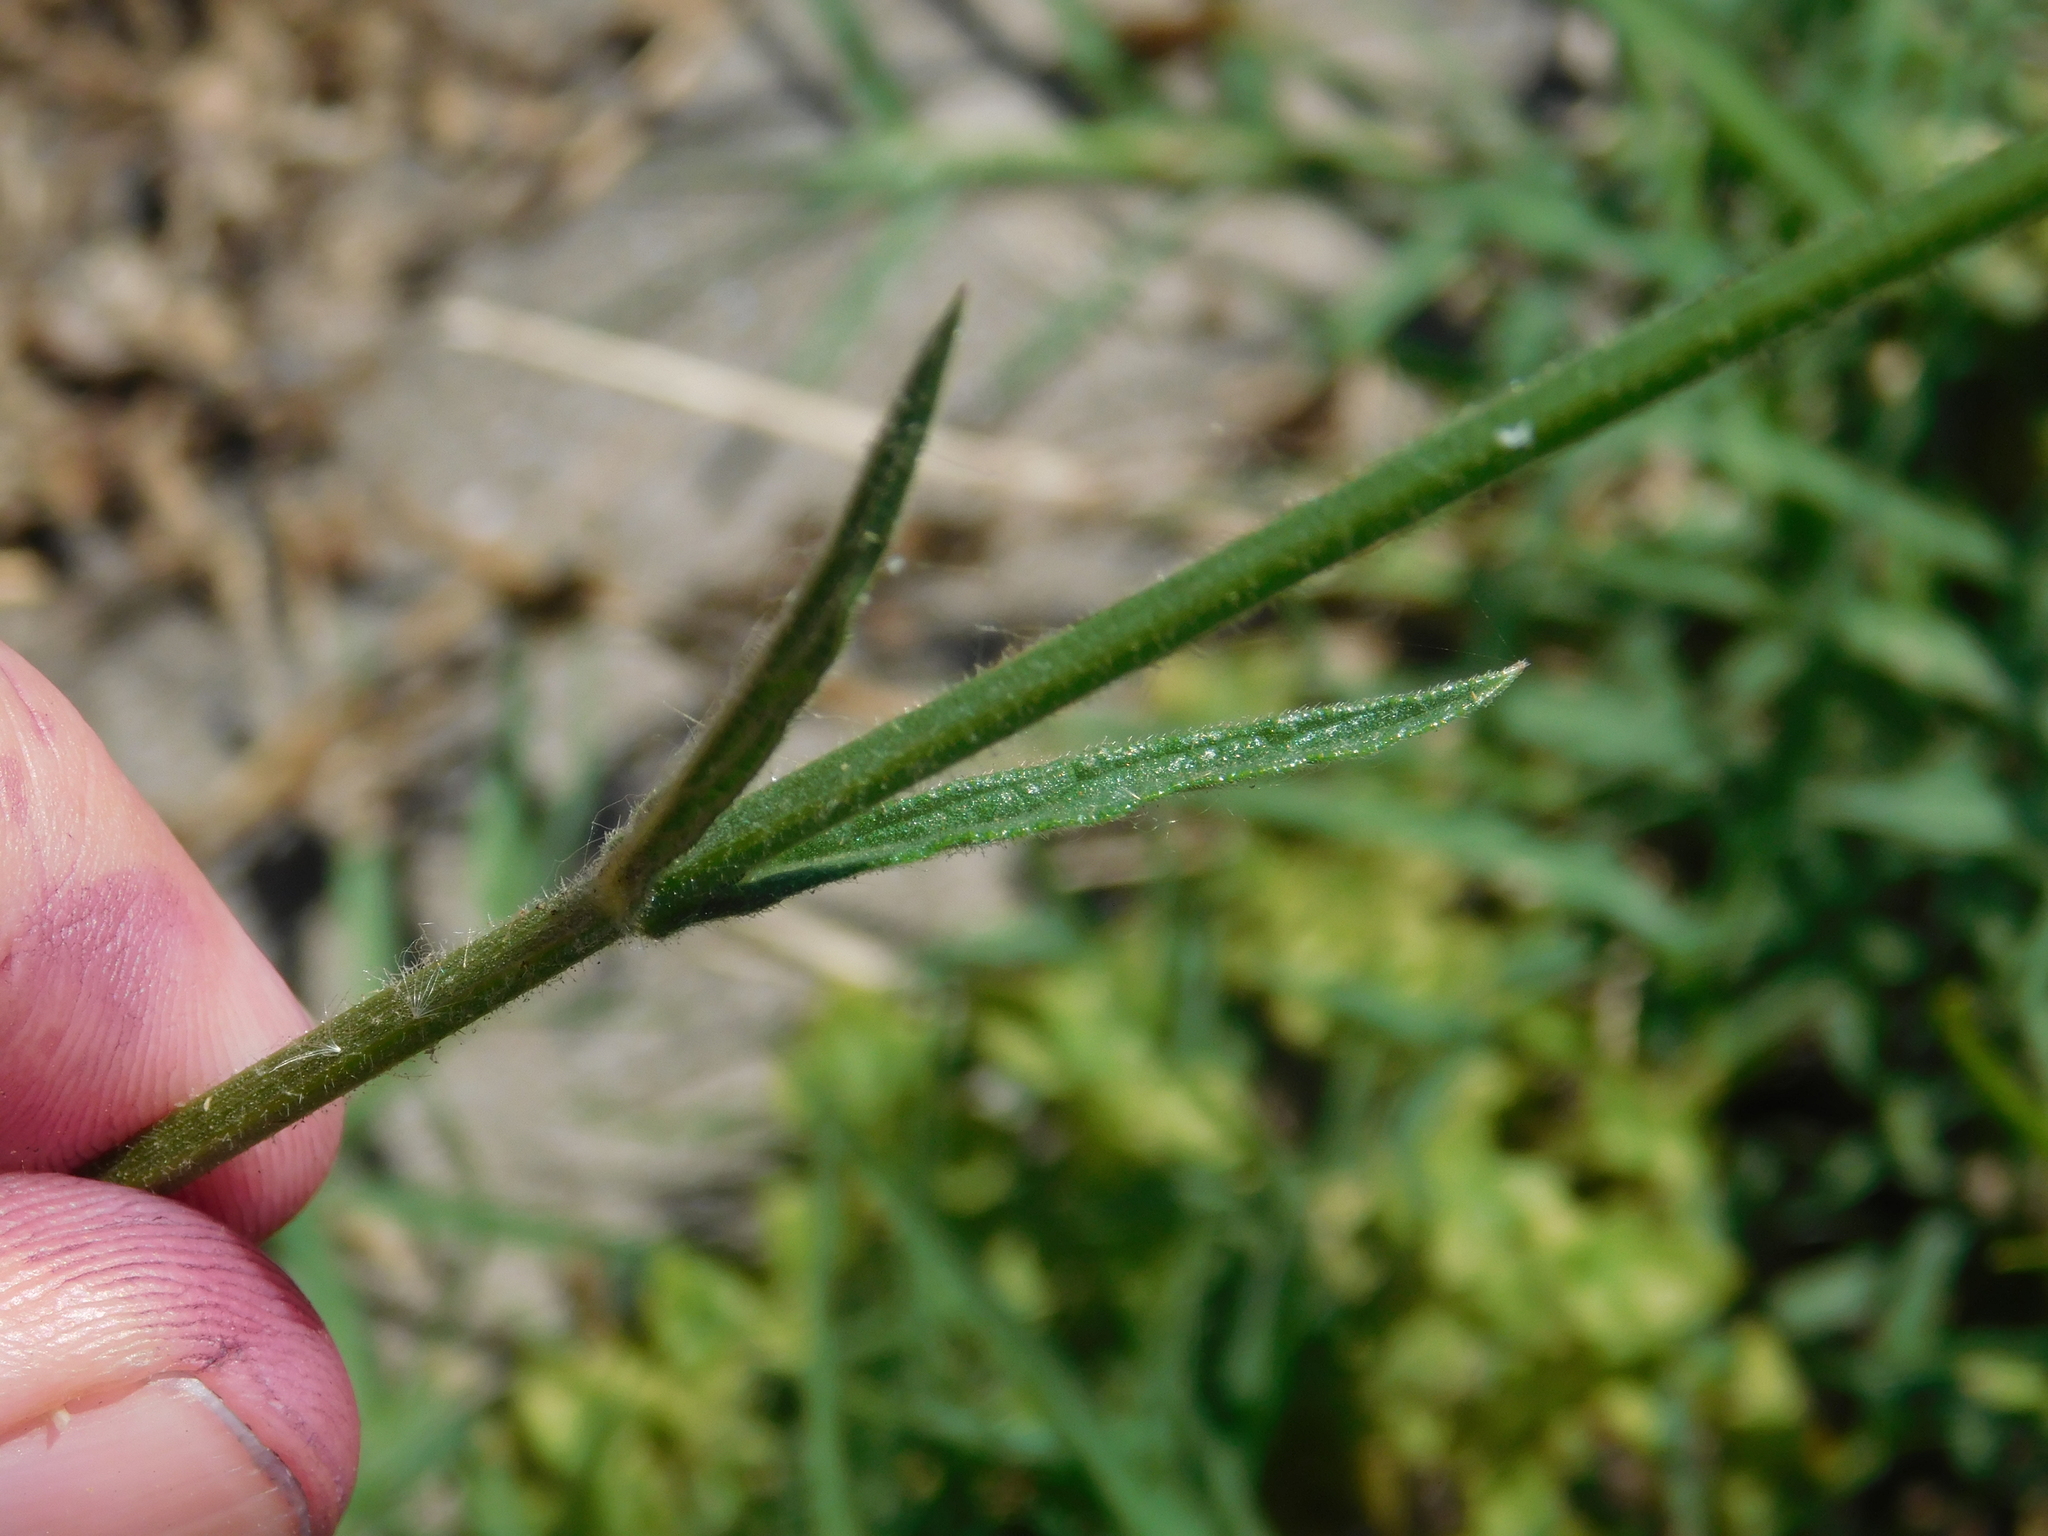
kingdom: Plantae
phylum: Tracheophyta
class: Magnoliopsida
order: Lamiales
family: Verbenaceae
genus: Verbena
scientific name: Verbena litoralis
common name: Seashore vervain
